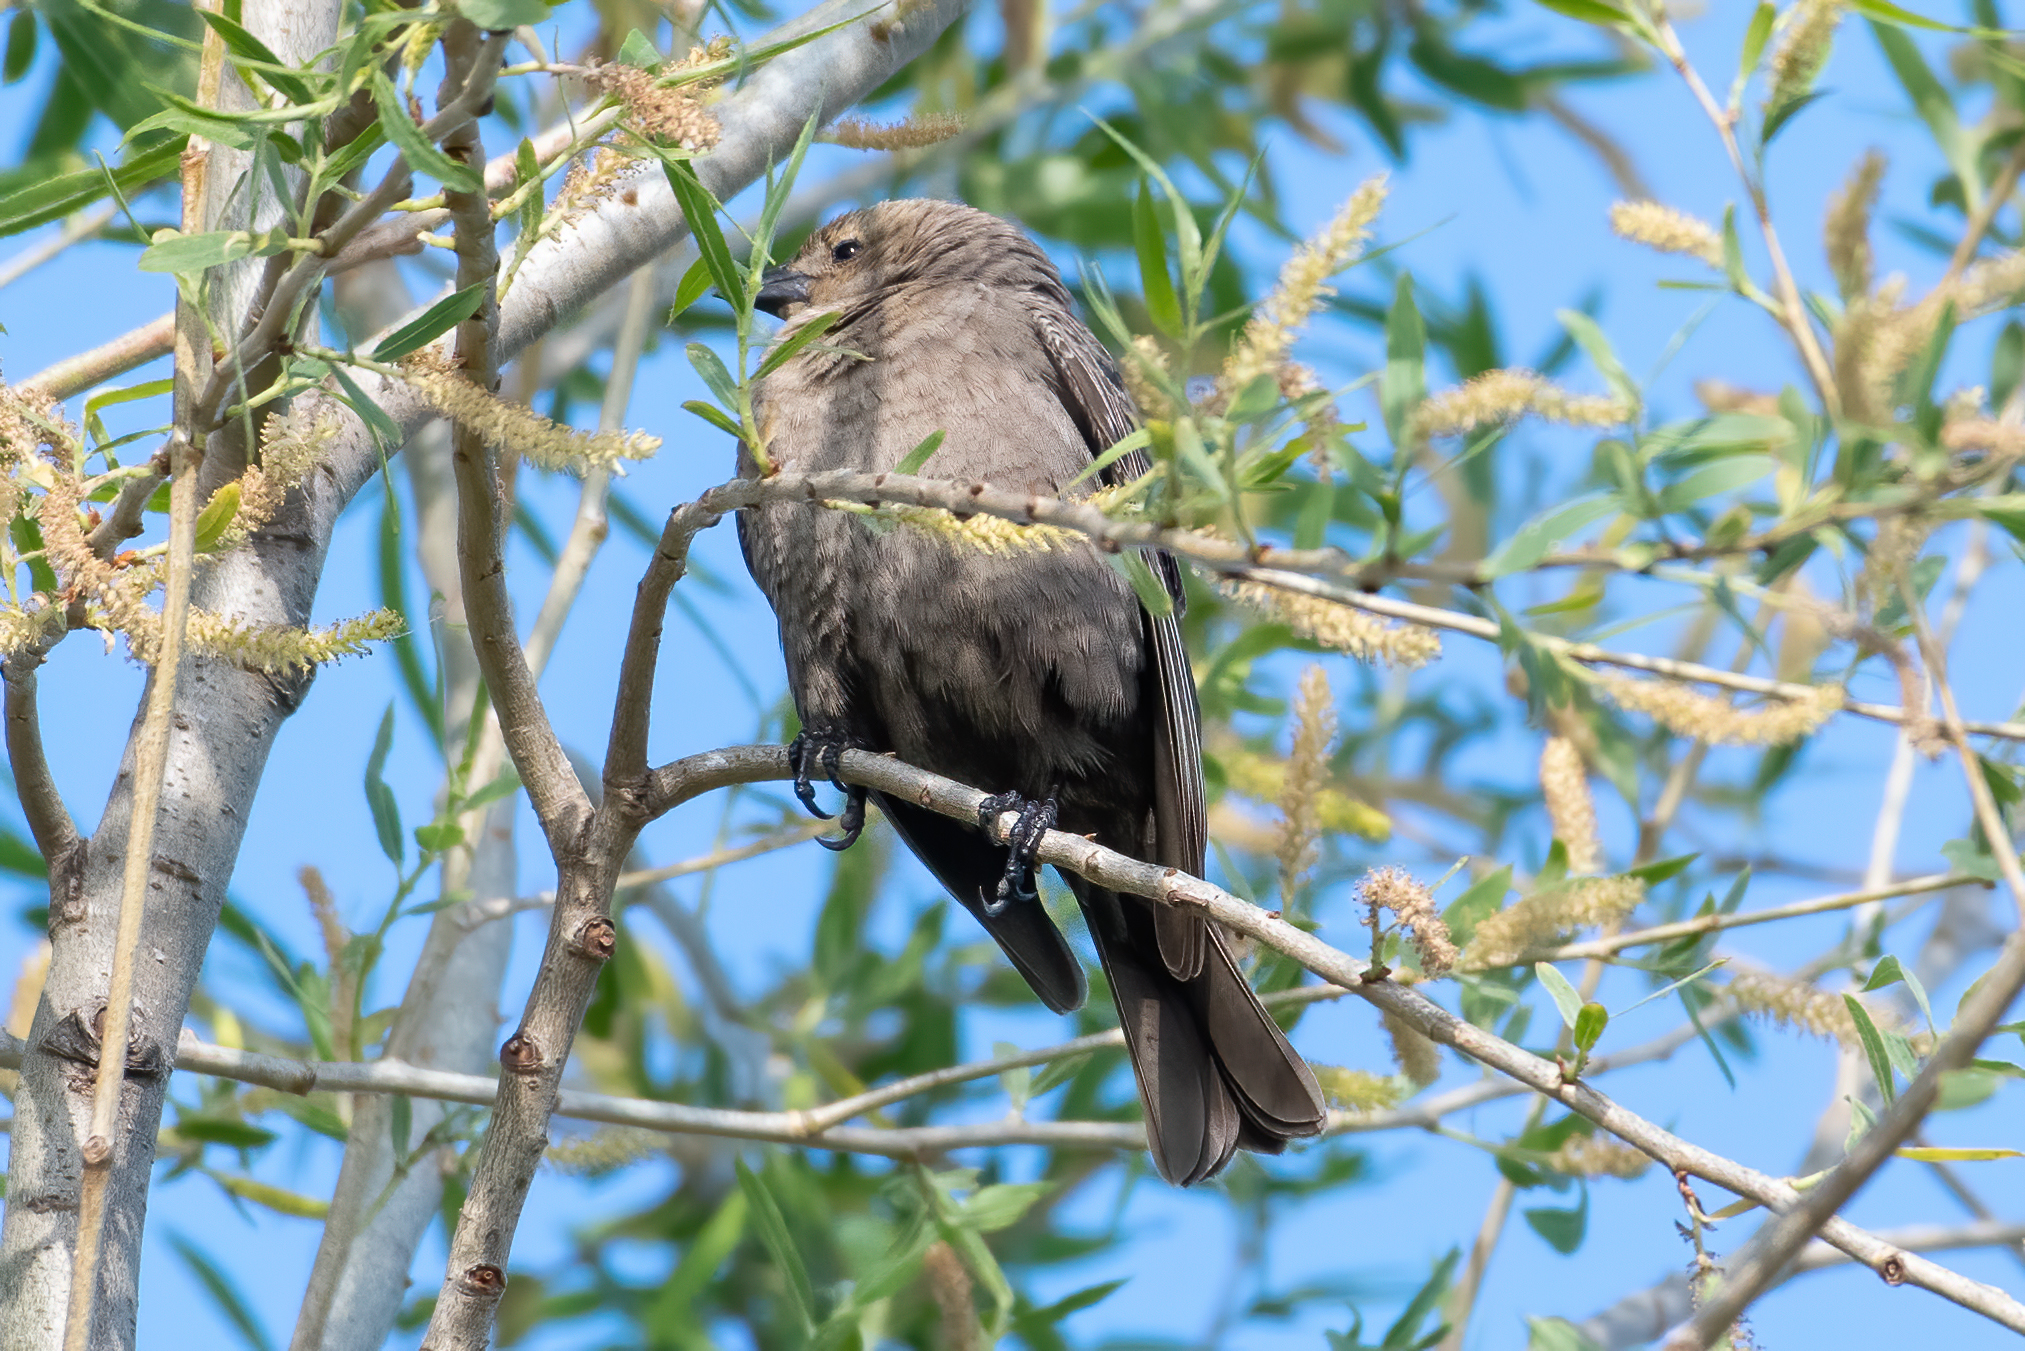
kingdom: Animalia
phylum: Chordata
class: Aves
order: Passeriformes
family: Icteridae
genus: Molothrus
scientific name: Molothrus ater
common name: Brown-headed cowbird
